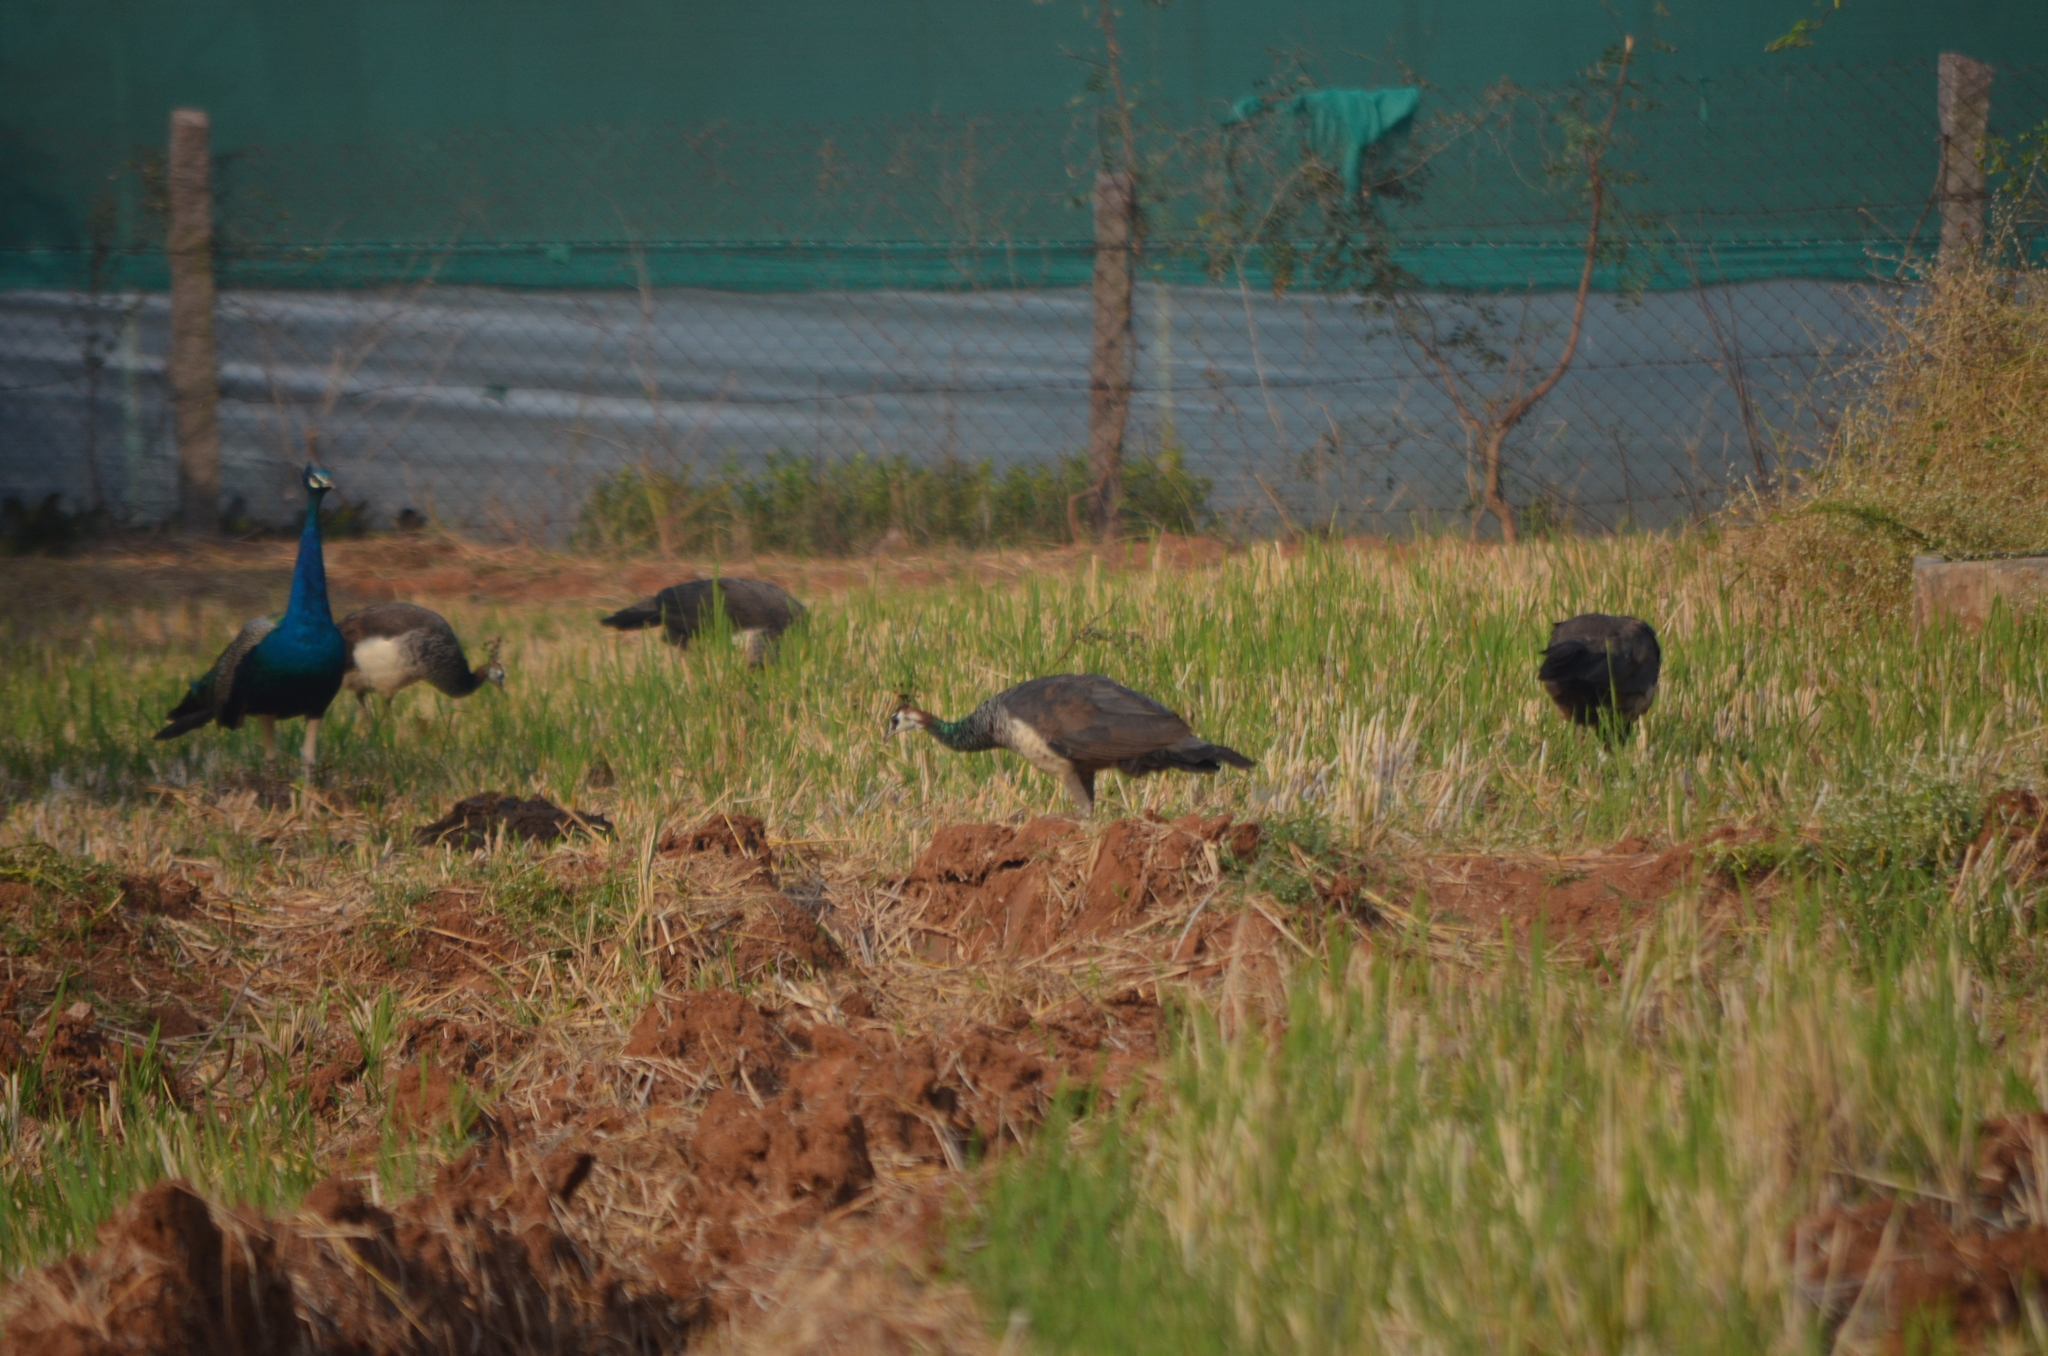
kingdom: Animalia
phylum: Chordata
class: Aves
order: Galliformes
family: Phasianidae
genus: Pavo
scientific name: Pavo cristatus
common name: Indian peafowl
